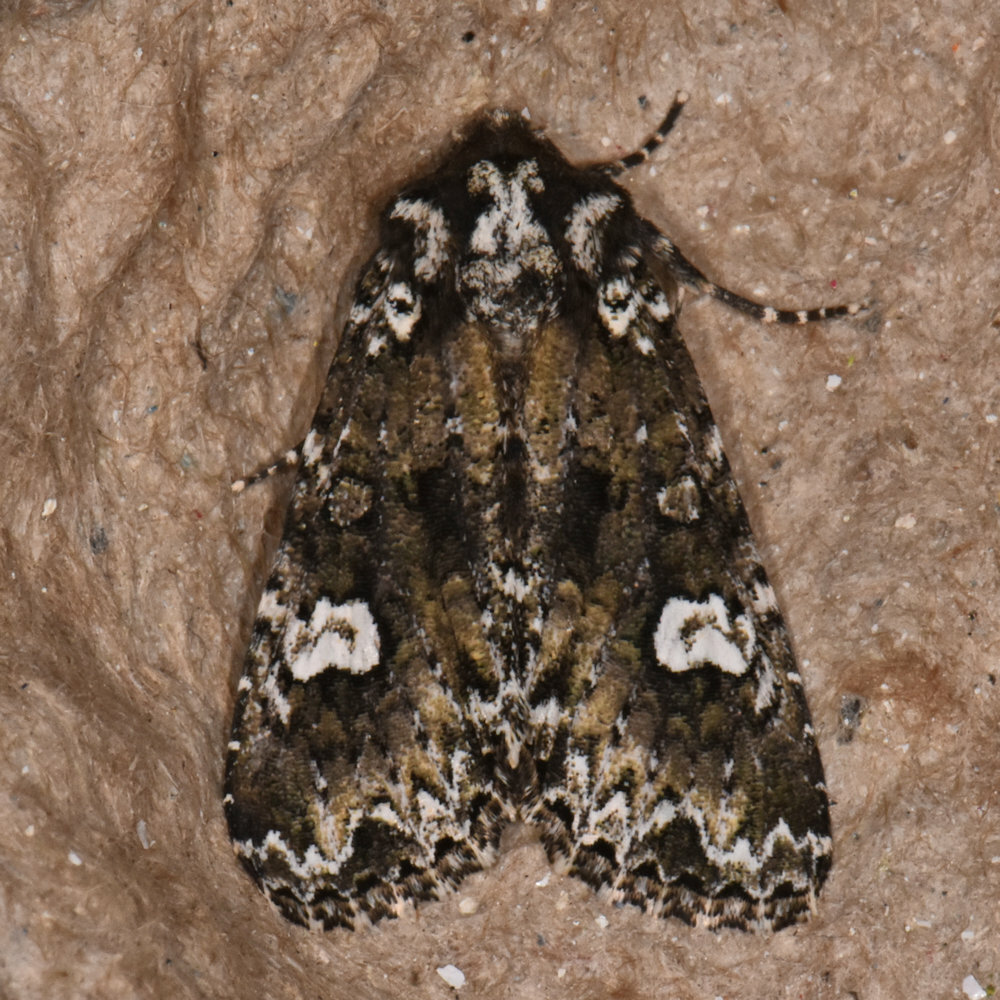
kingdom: Animalia
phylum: Arthropoda
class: Insecta
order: Lepidoptera
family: Noctuidae
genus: Melanchra
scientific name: Melanchra adjuncta
